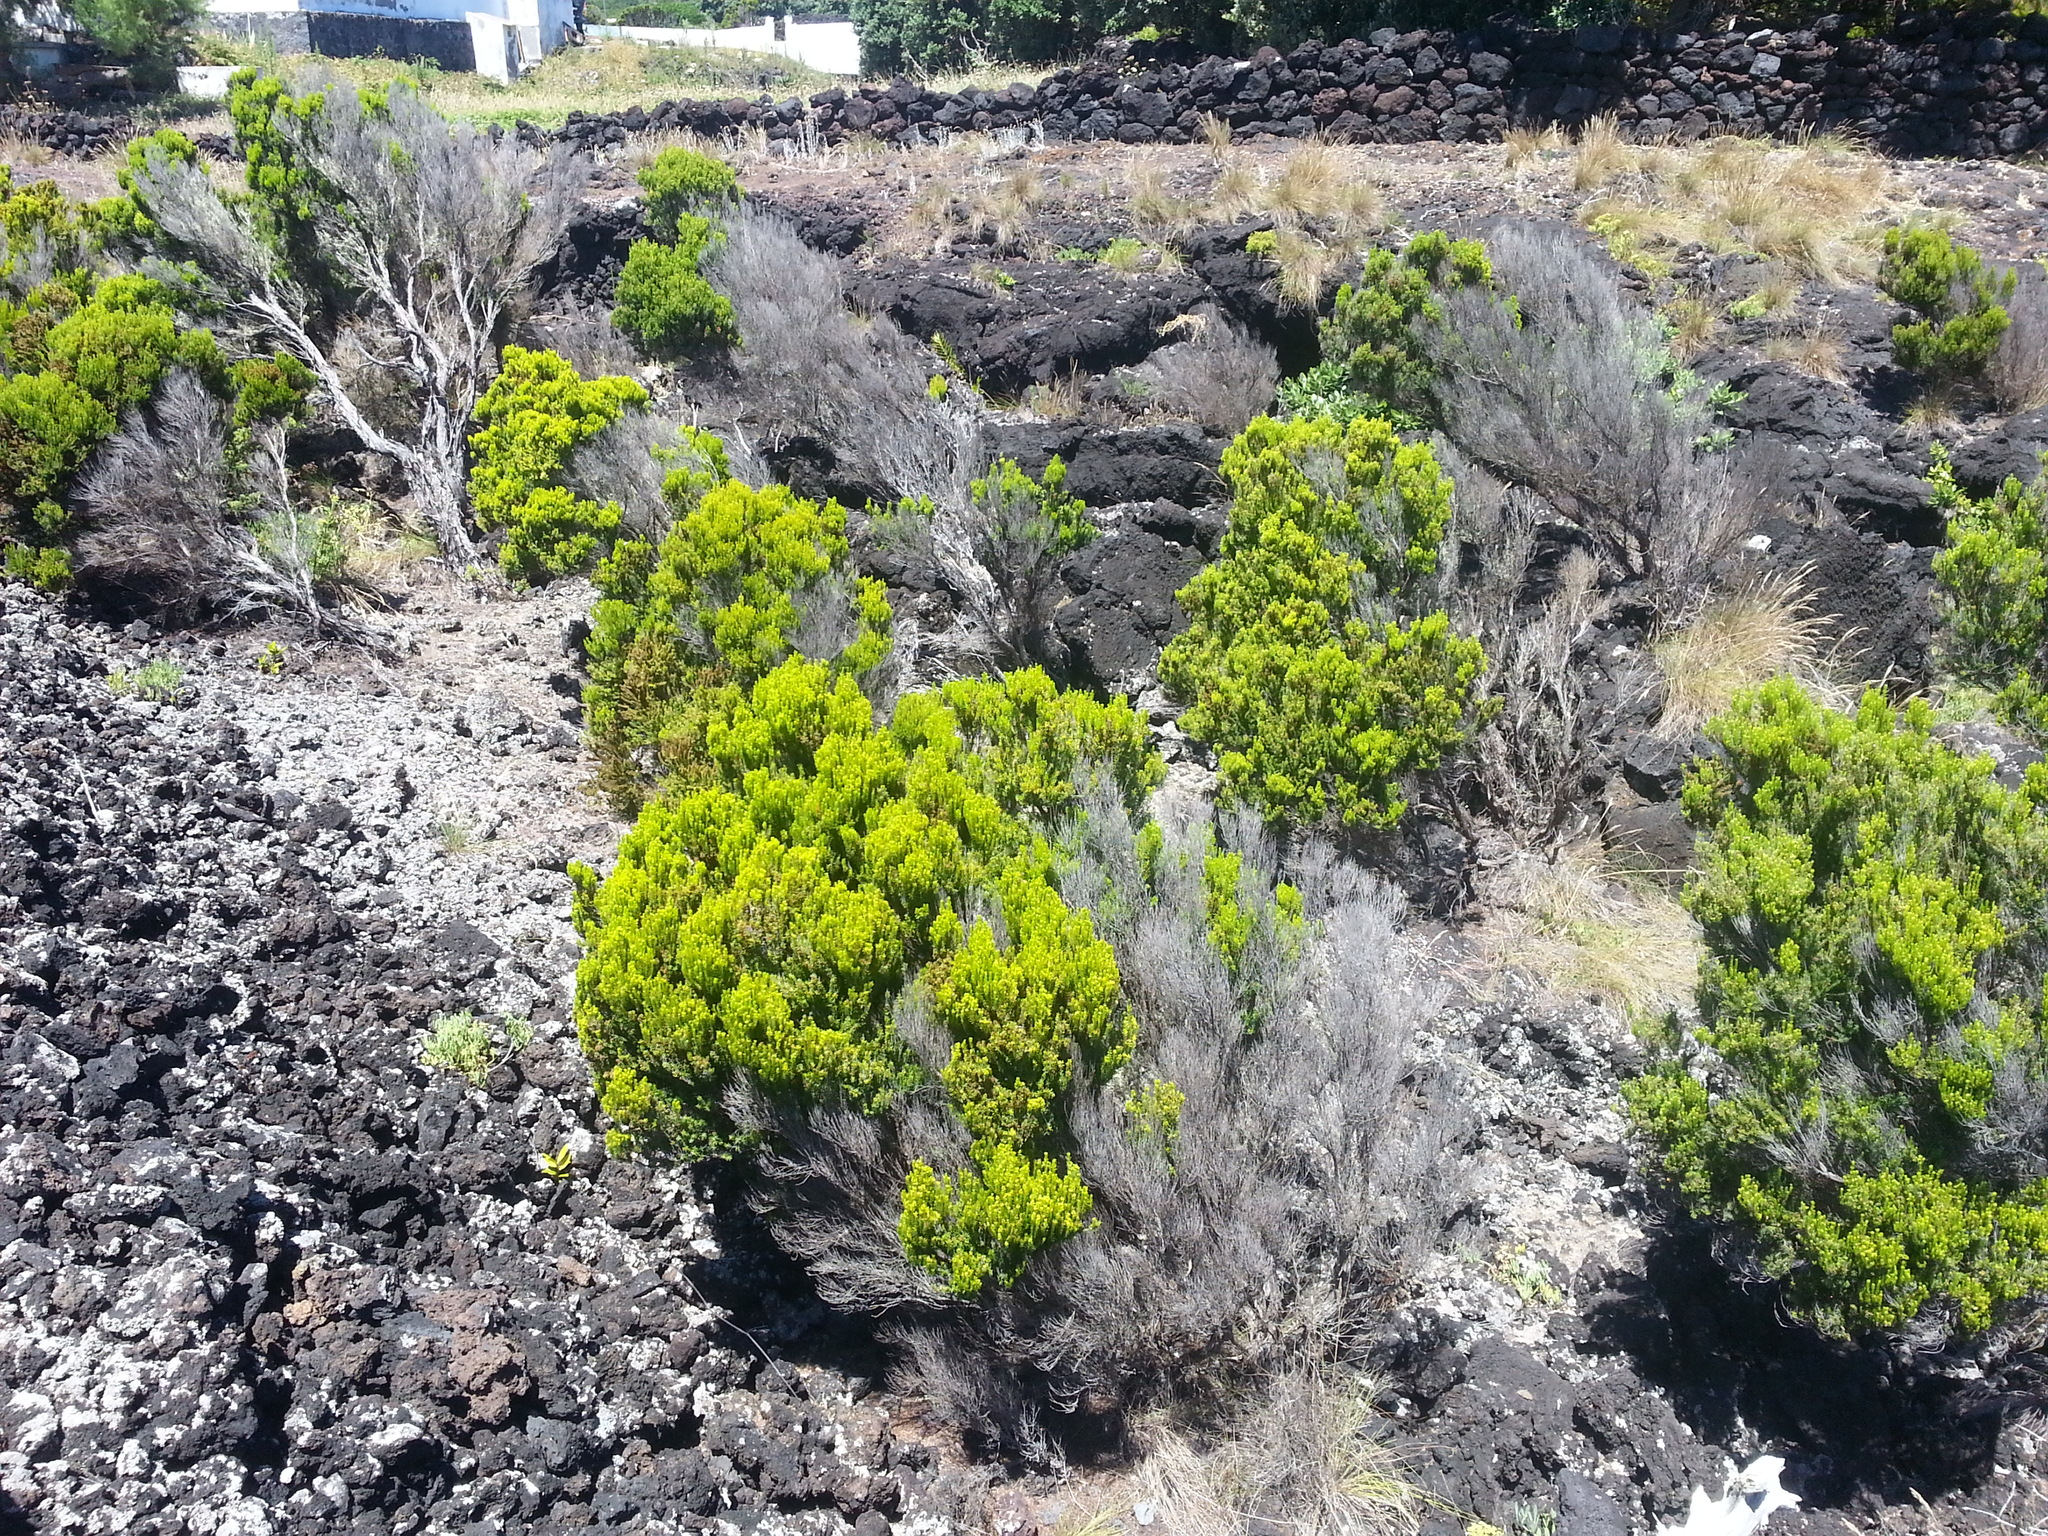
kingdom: Plantae
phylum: Tracheophyta
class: Magnoliopsida
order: Ericales
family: Ericaceae
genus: Erica
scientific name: Erica azorica
